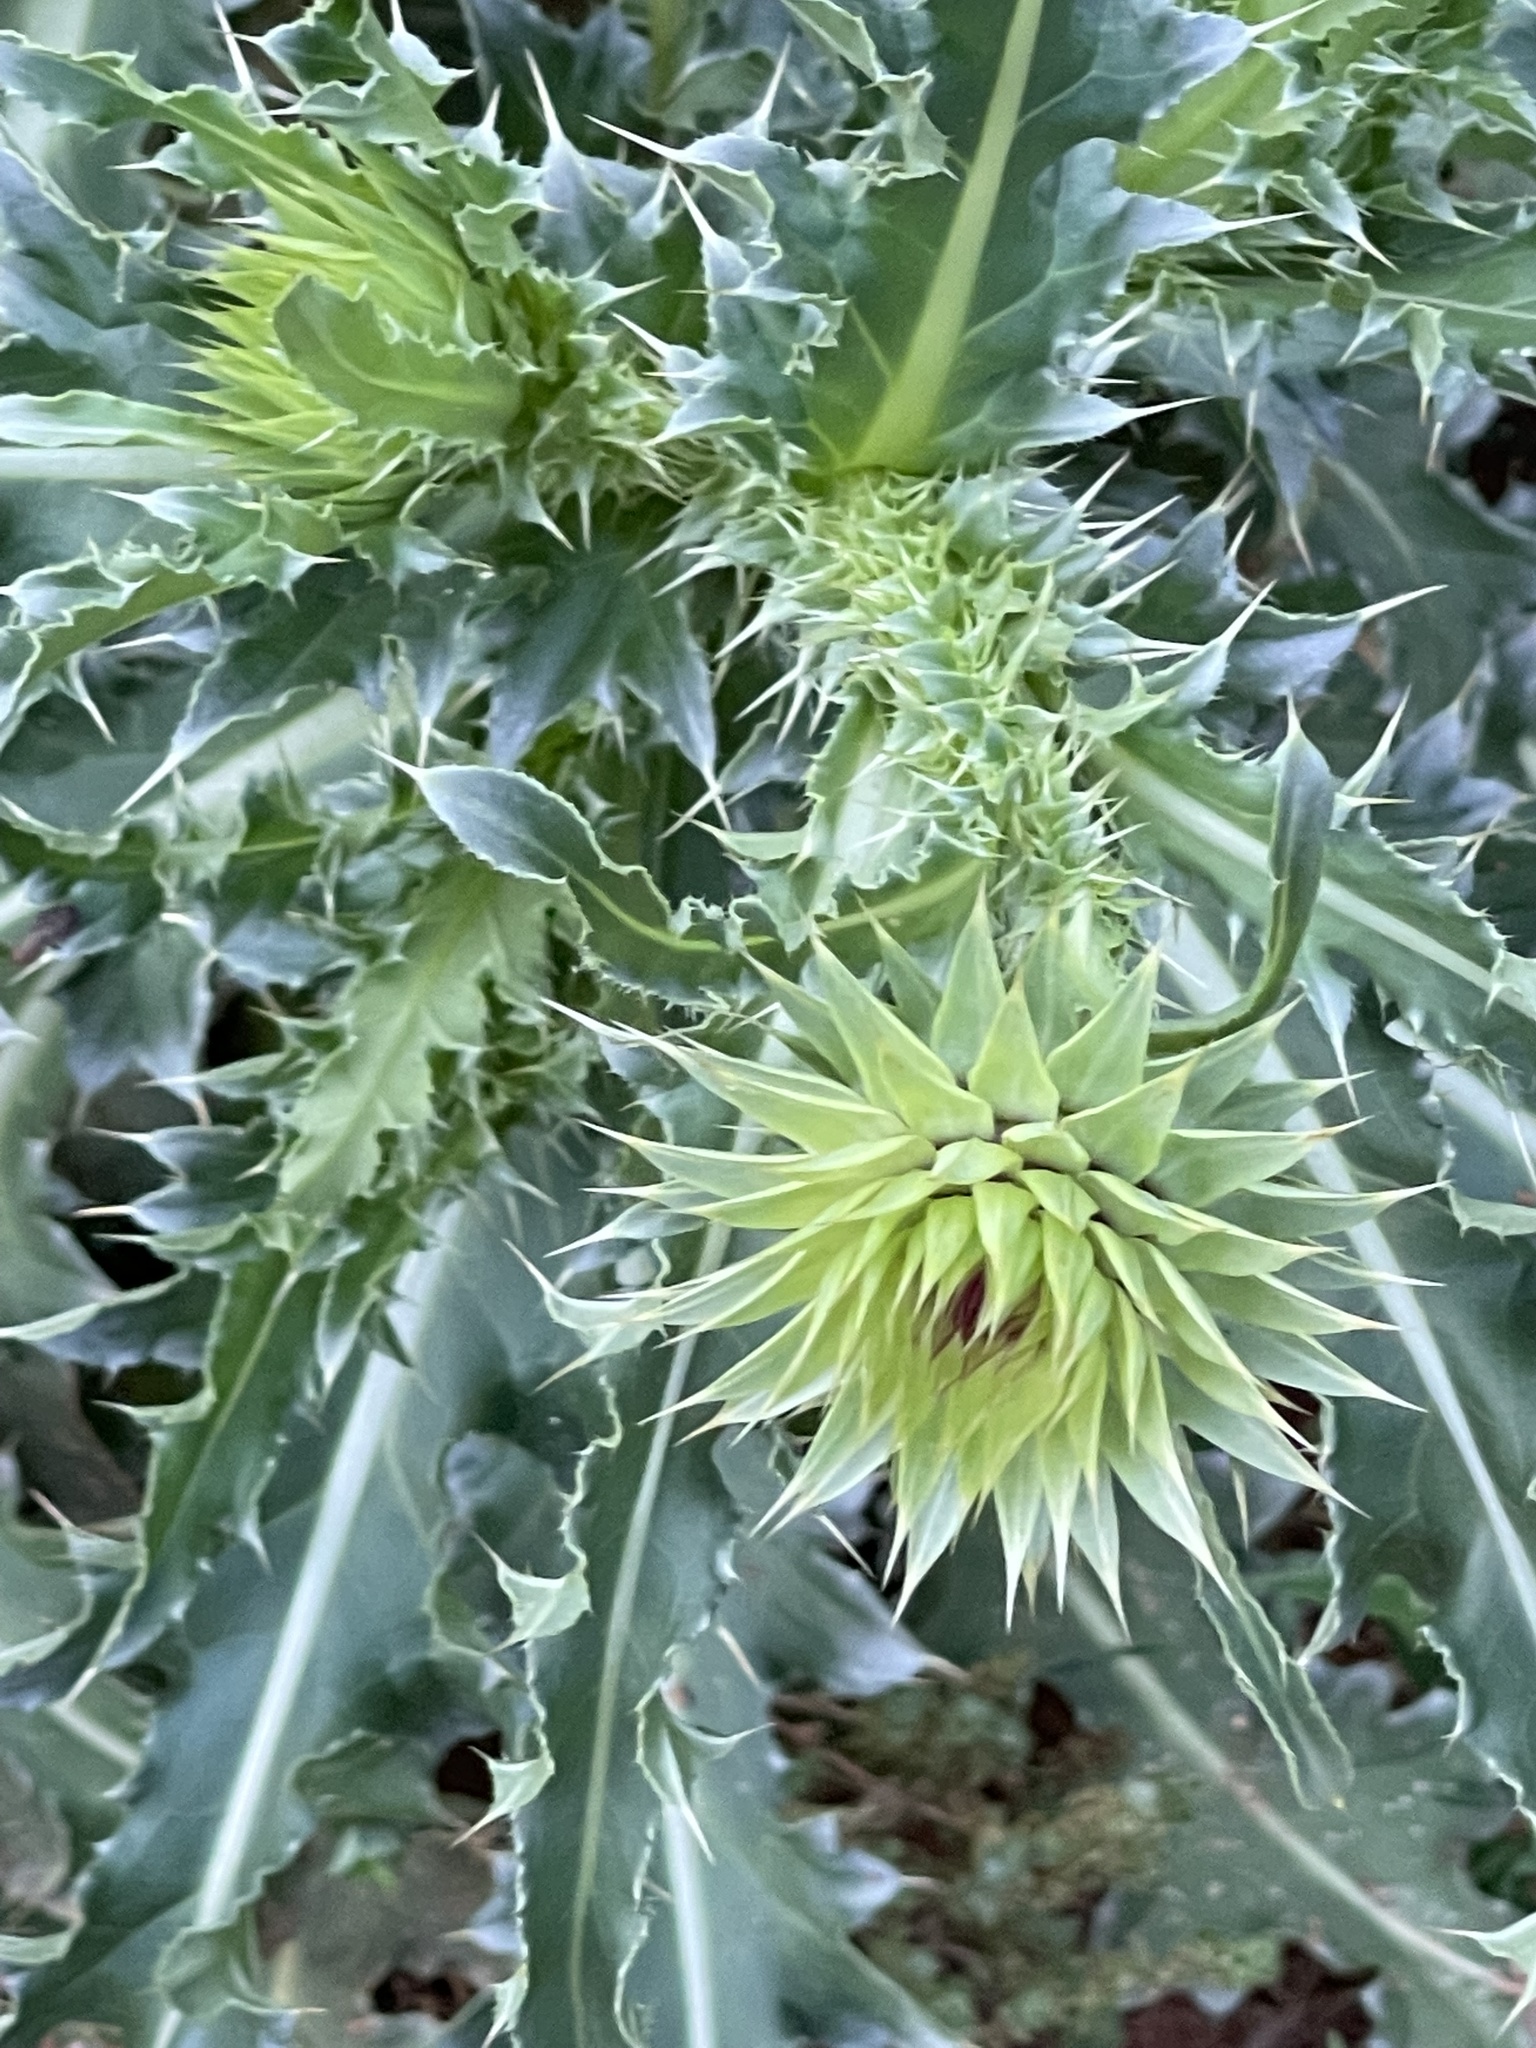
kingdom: Plantae
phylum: Tracheophyta
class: Magnoliopsida
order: Asterales
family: Asteraceae
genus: Carduus
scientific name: Carduus nutans
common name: Musk thistle
